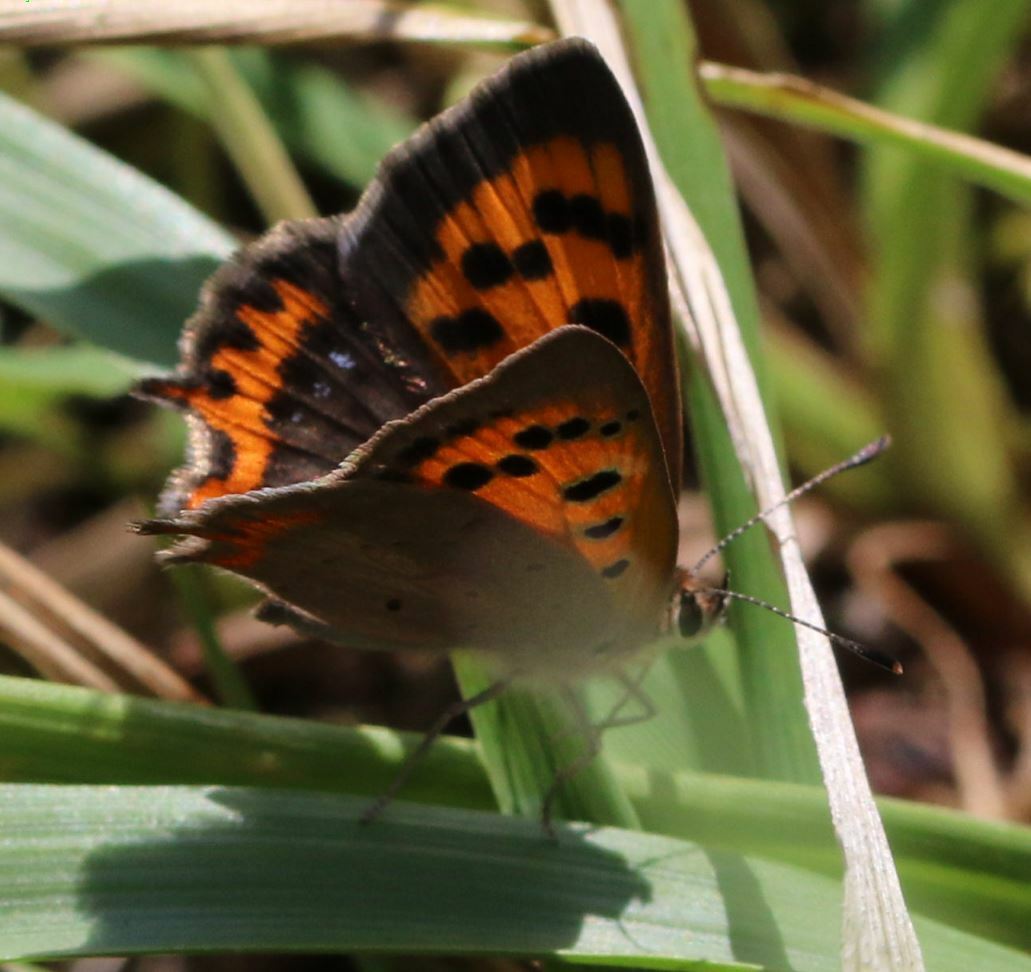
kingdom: Animalia
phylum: Arthropoda
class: Insecta
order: Lepidoptera
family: Lycaenidae
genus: Lycaena
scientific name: Lycaena phlaeas
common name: Small copper
